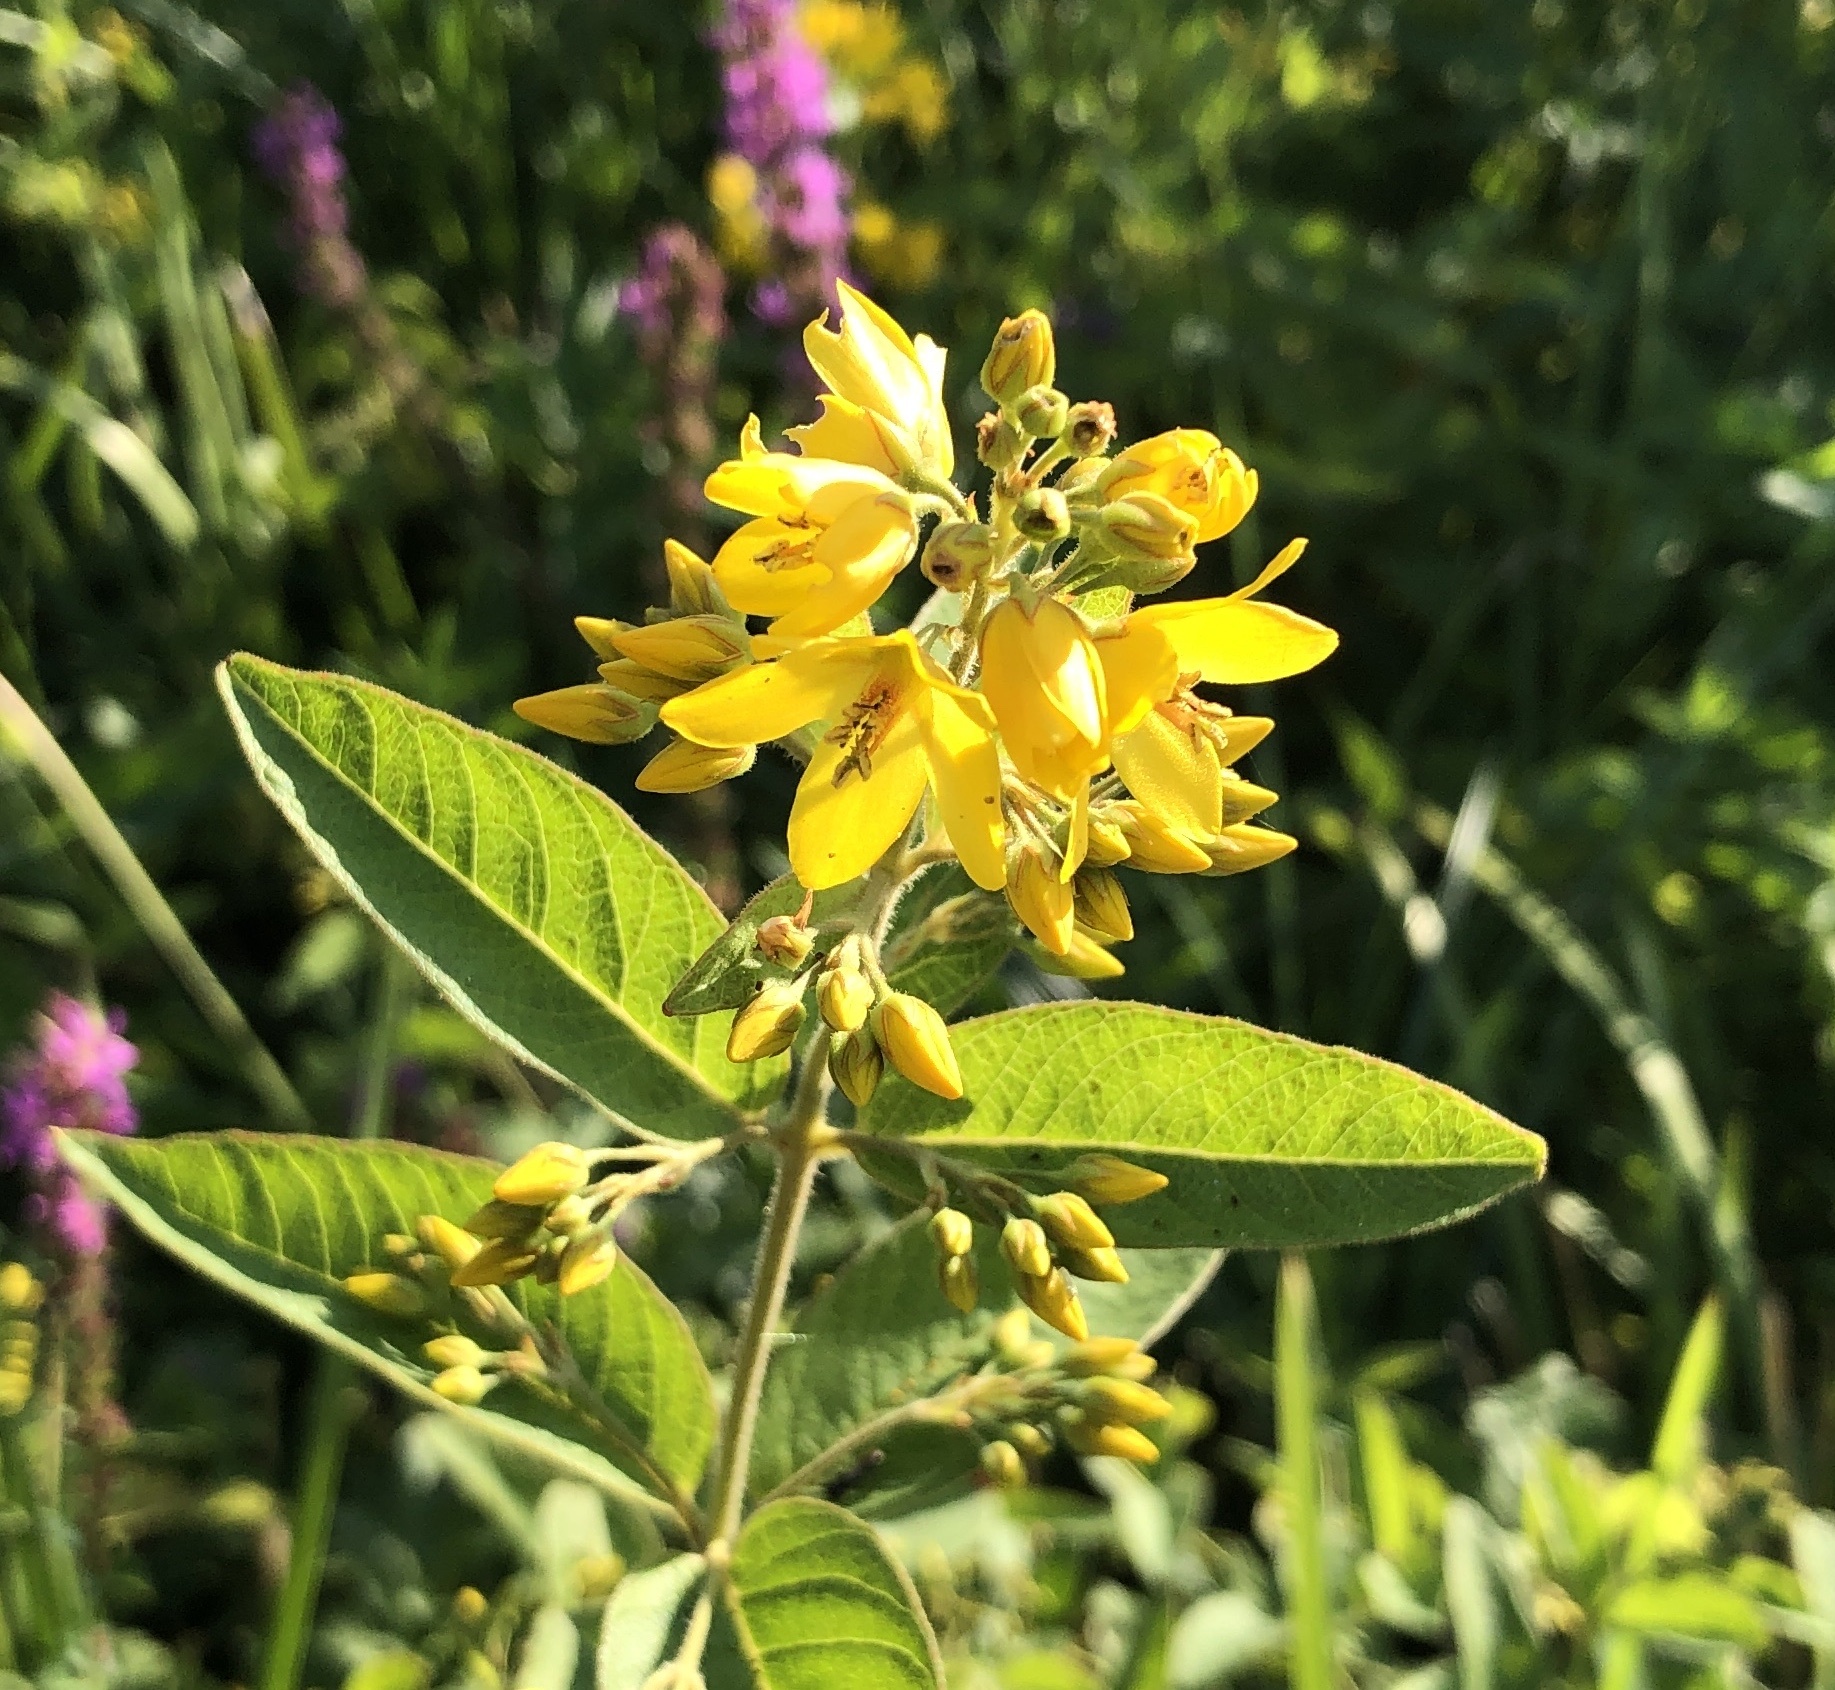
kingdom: Plantae
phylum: Tracheophyta
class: Magnoliopsida
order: Ericales
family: Primulaceae
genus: Lysimachia
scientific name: Lysimachia vulgaris
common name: Yellow loosestrife
